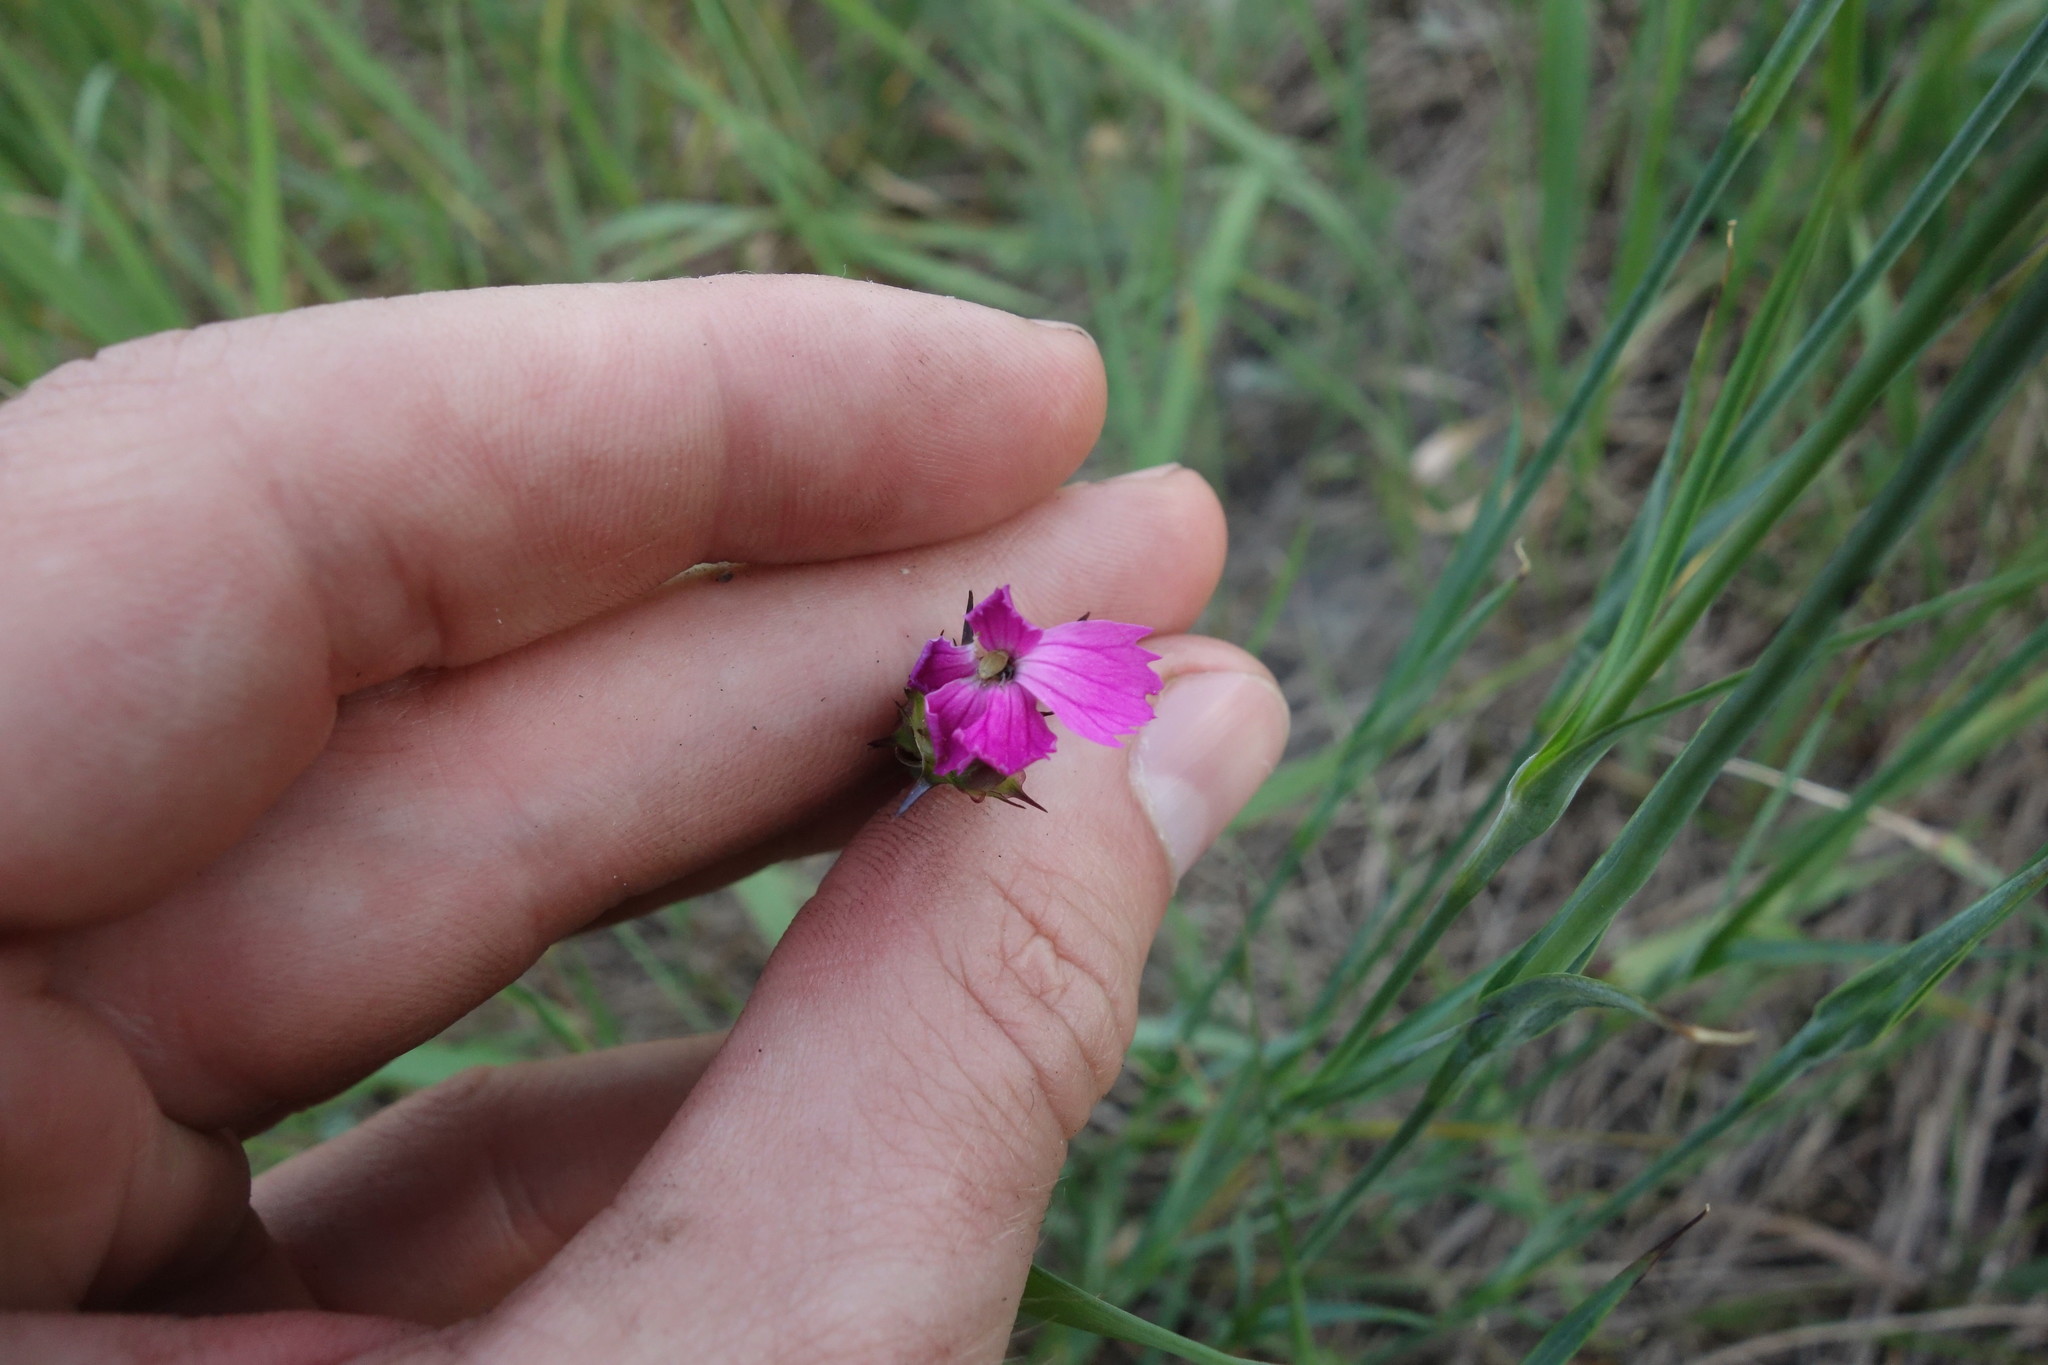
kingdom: Plantae
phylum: Tracheophyta
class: Magnoliopsida
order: Caryophyllales
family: Caryophyllaceae
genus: Dianthus
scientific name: Dianthus capitatus
